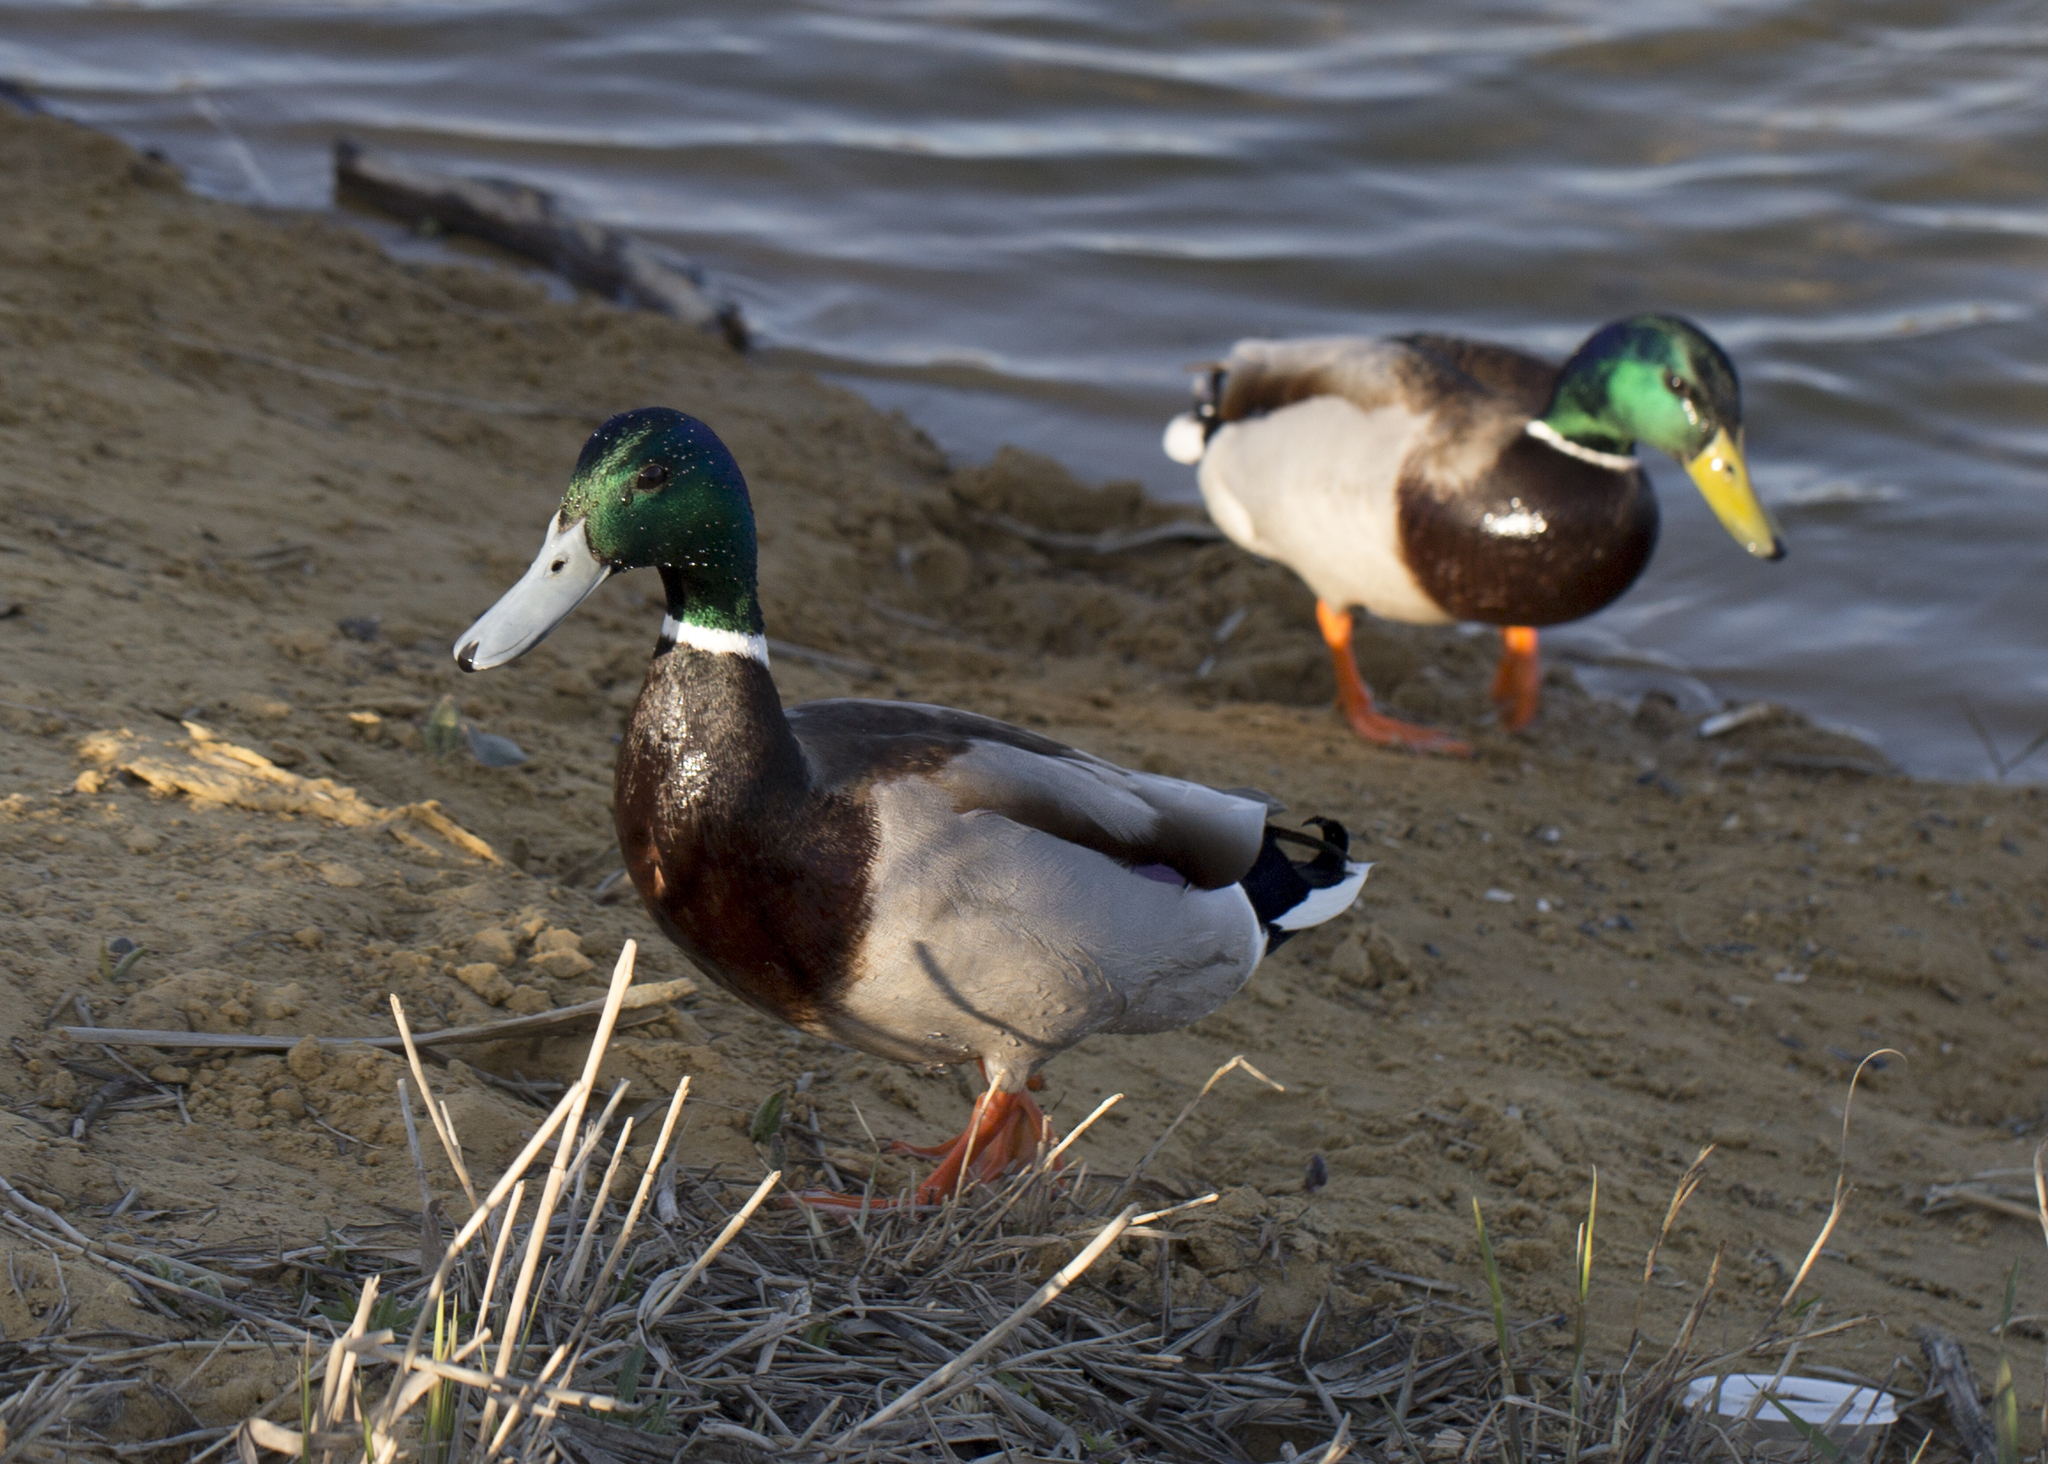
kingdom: Animalia
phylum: Chordata
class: Aves
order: Anseriformes
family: Anatidae
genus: Anas
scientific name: Anas platyrhynchos
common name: Mallard
